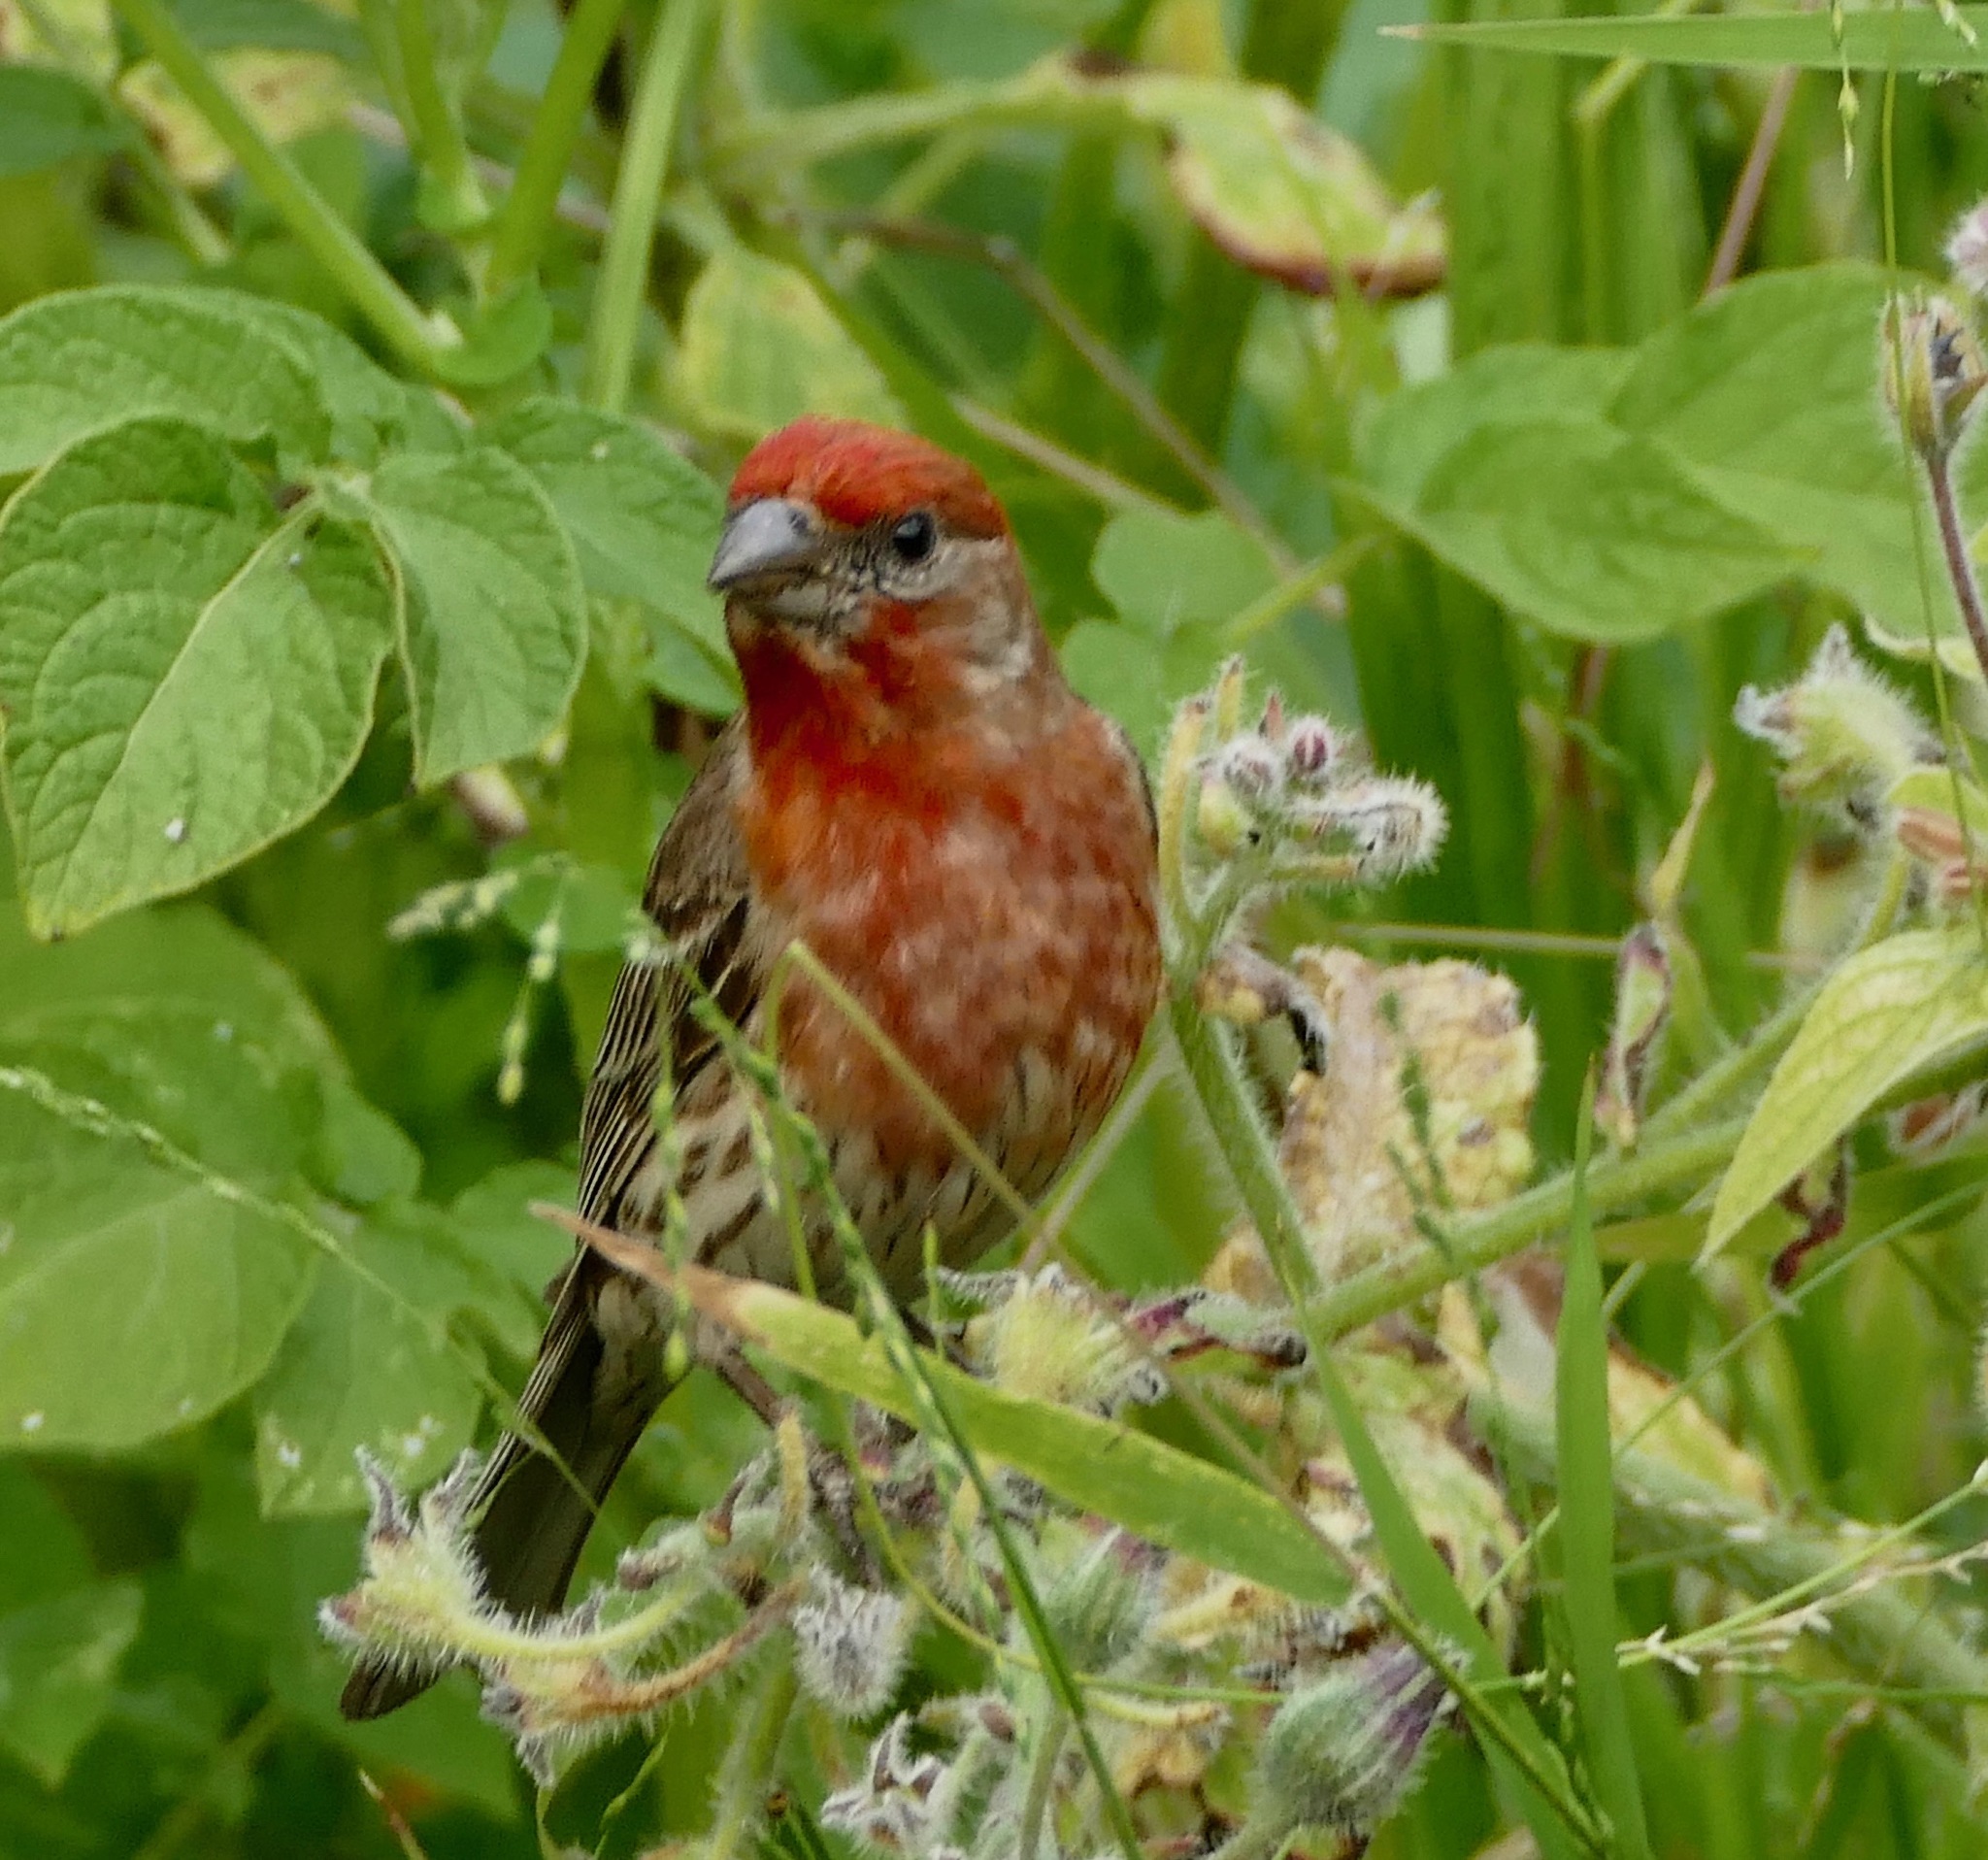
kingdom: Animalia
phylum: Chordata
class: Aves
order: Passeriformes
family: Fringillidae
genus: Haemorhous
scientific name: Haemorhous mexicanus
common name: House finch
